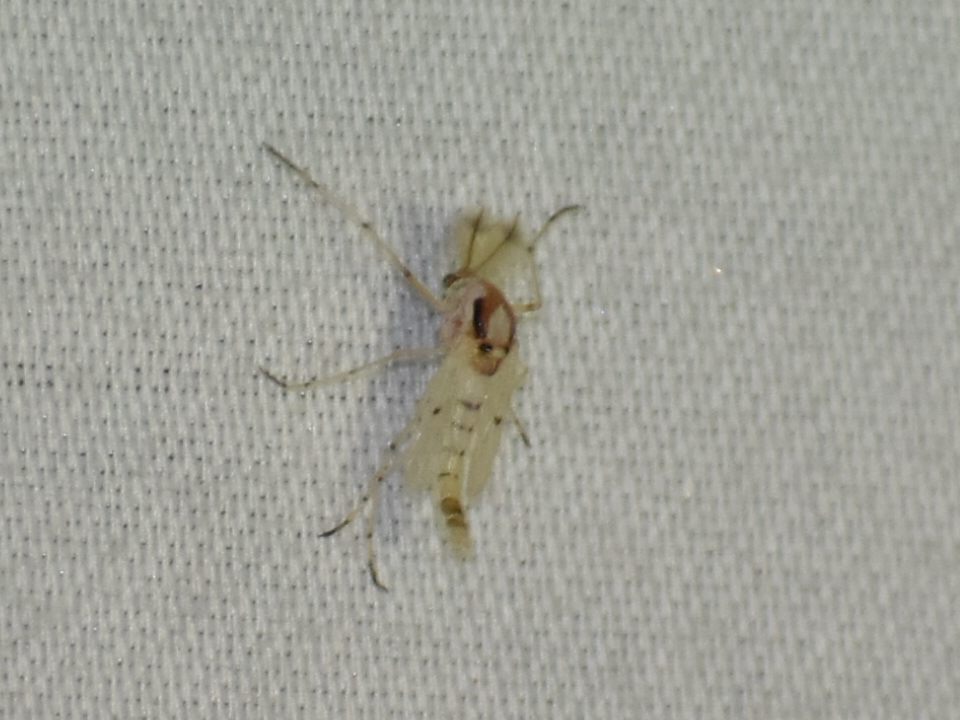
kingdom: Animalia
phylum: Arthropoda
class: Insecta
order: Diptera
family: Chironomidae
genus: Coelotanypus
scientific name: Coelotanypus concinnus
